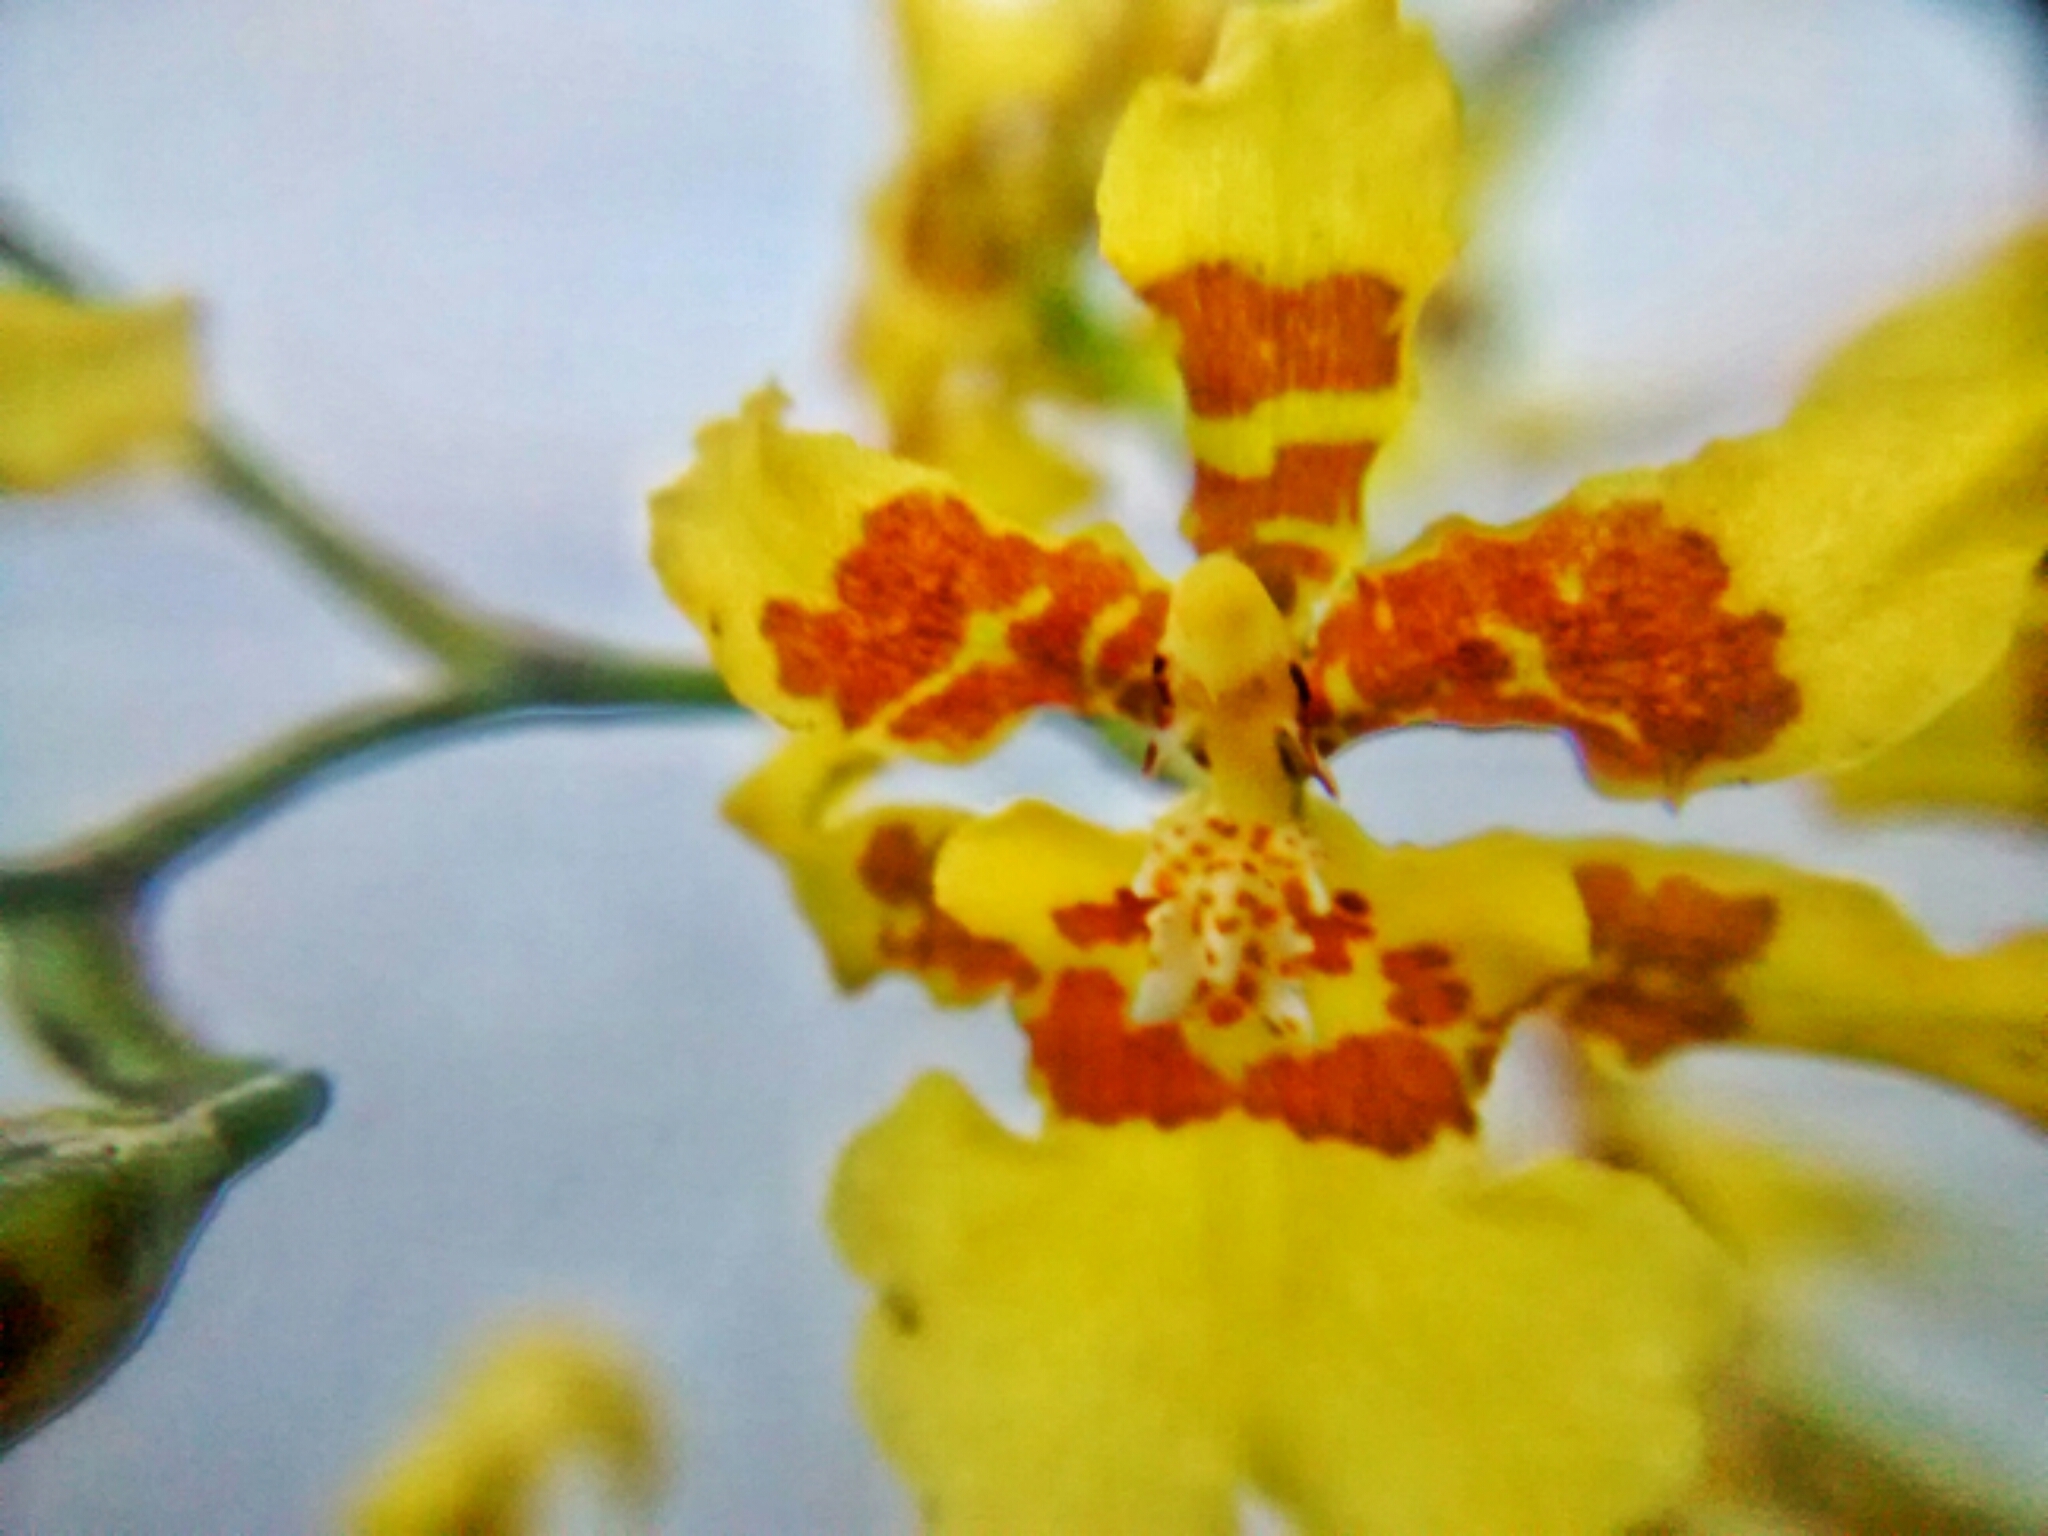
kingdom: Plantae
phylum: Tracheophyta
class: Liliopsida
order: Asparagales
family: Orchidaceae
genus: Oncidium
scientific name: Oncidium sphacelatum
